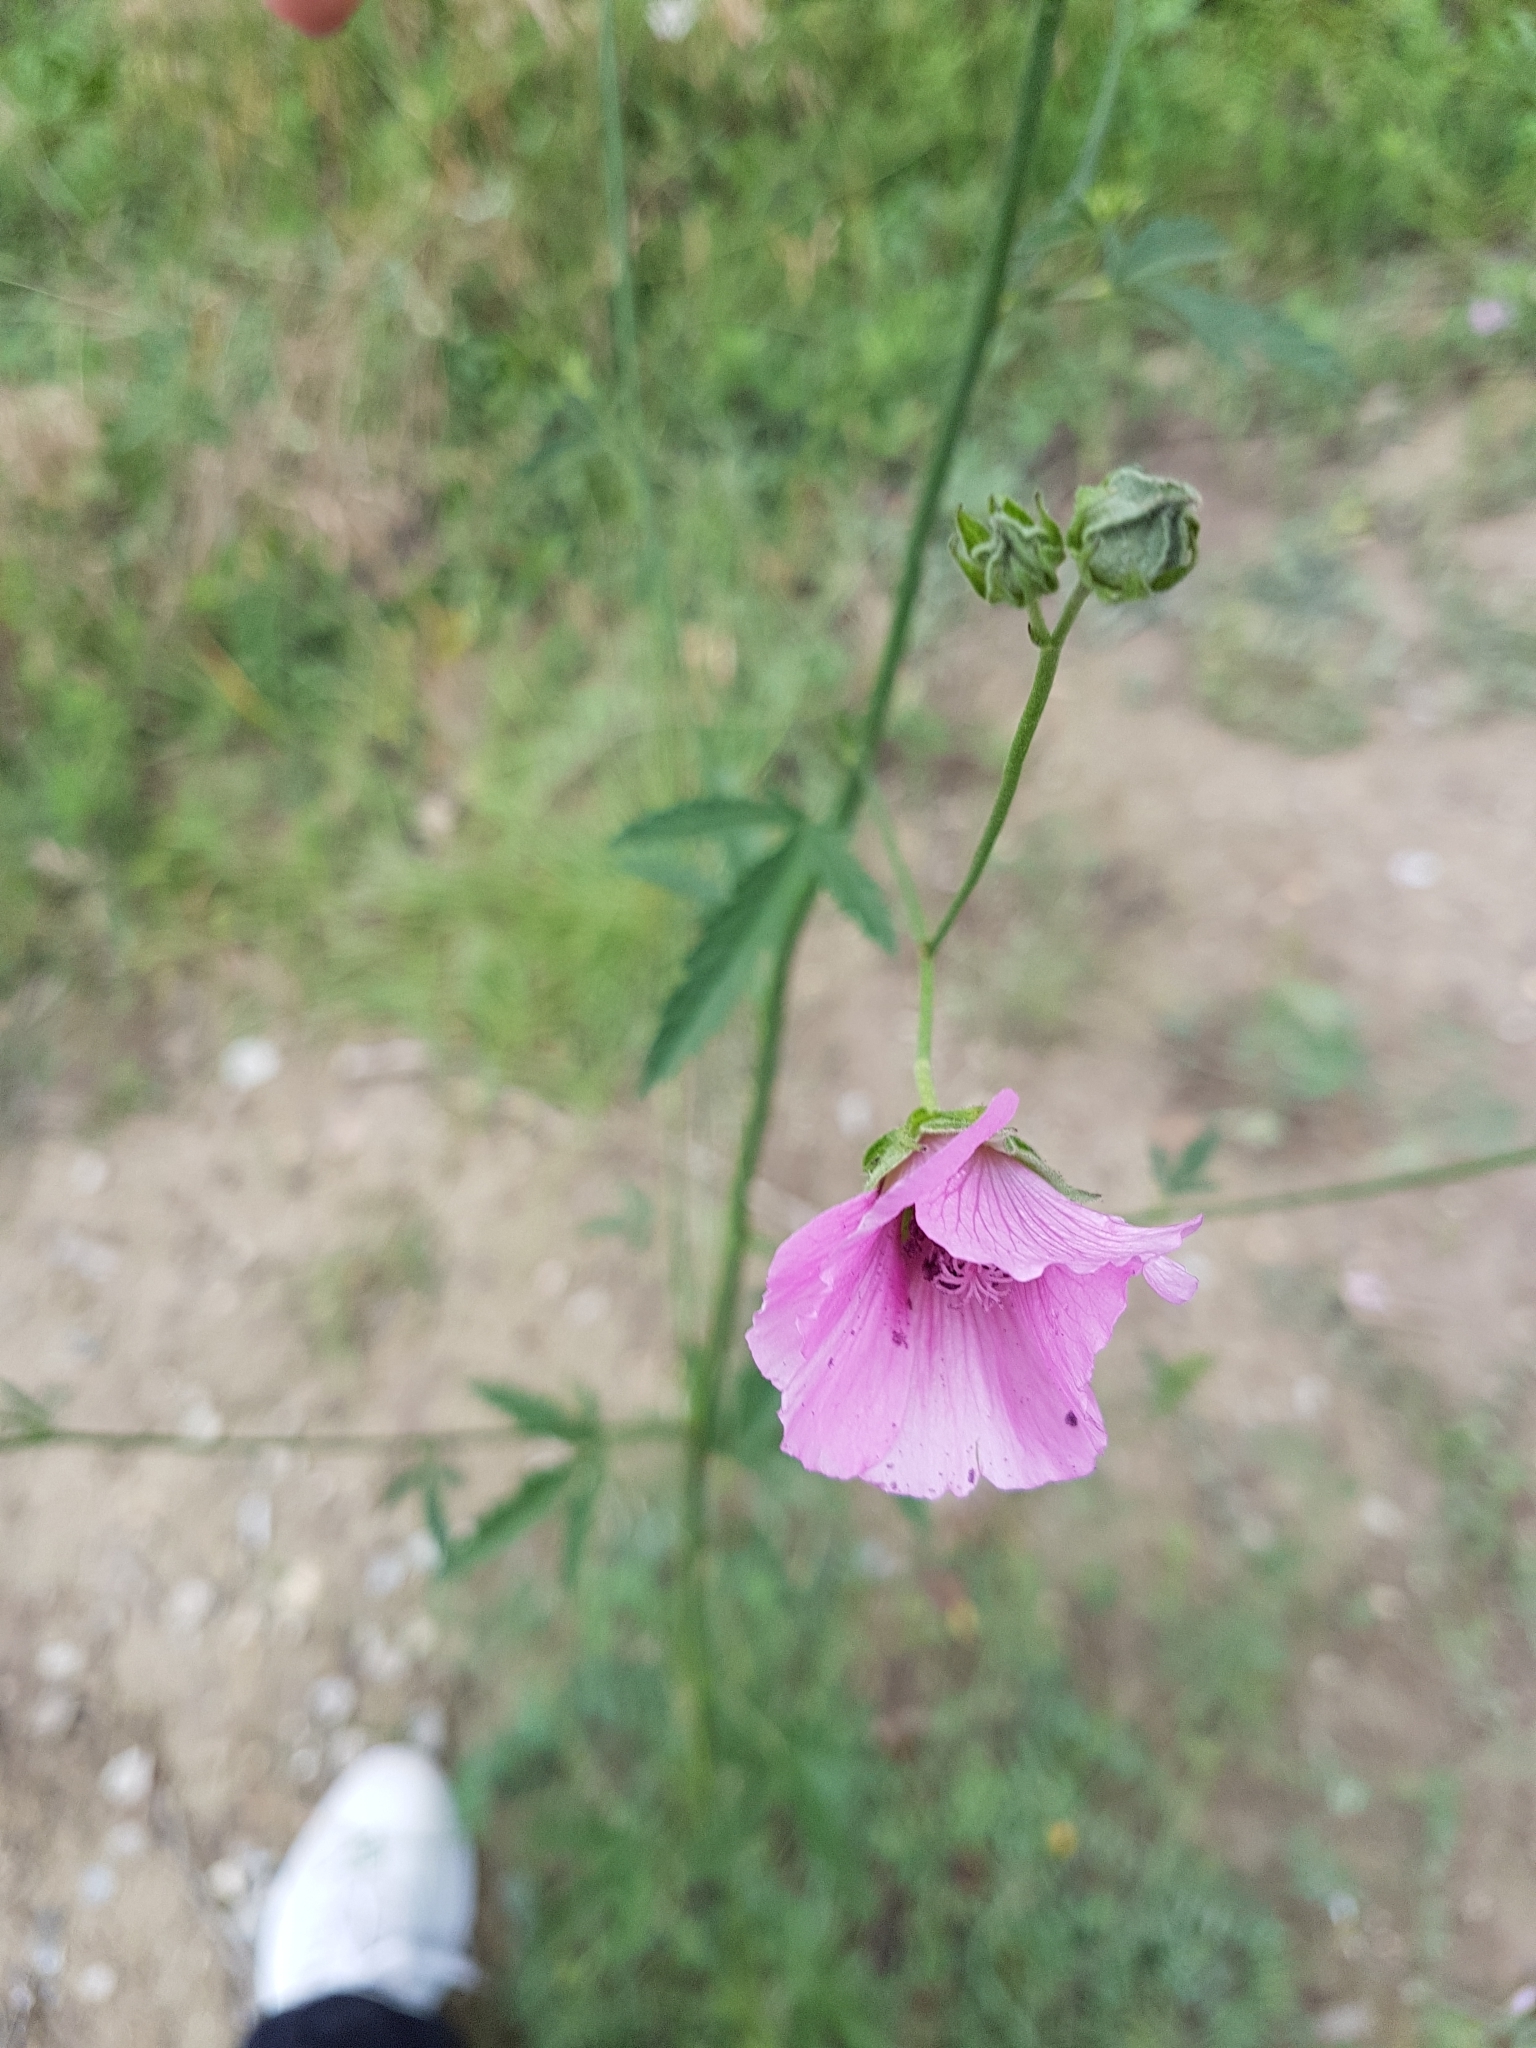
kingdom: Plantae
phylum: Tracheophyta
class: Magnoliopsida
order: Malvales
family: Malvaceae
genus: Althaea
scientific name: Althaea cannabina
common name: Palm-leaf marshmallow
